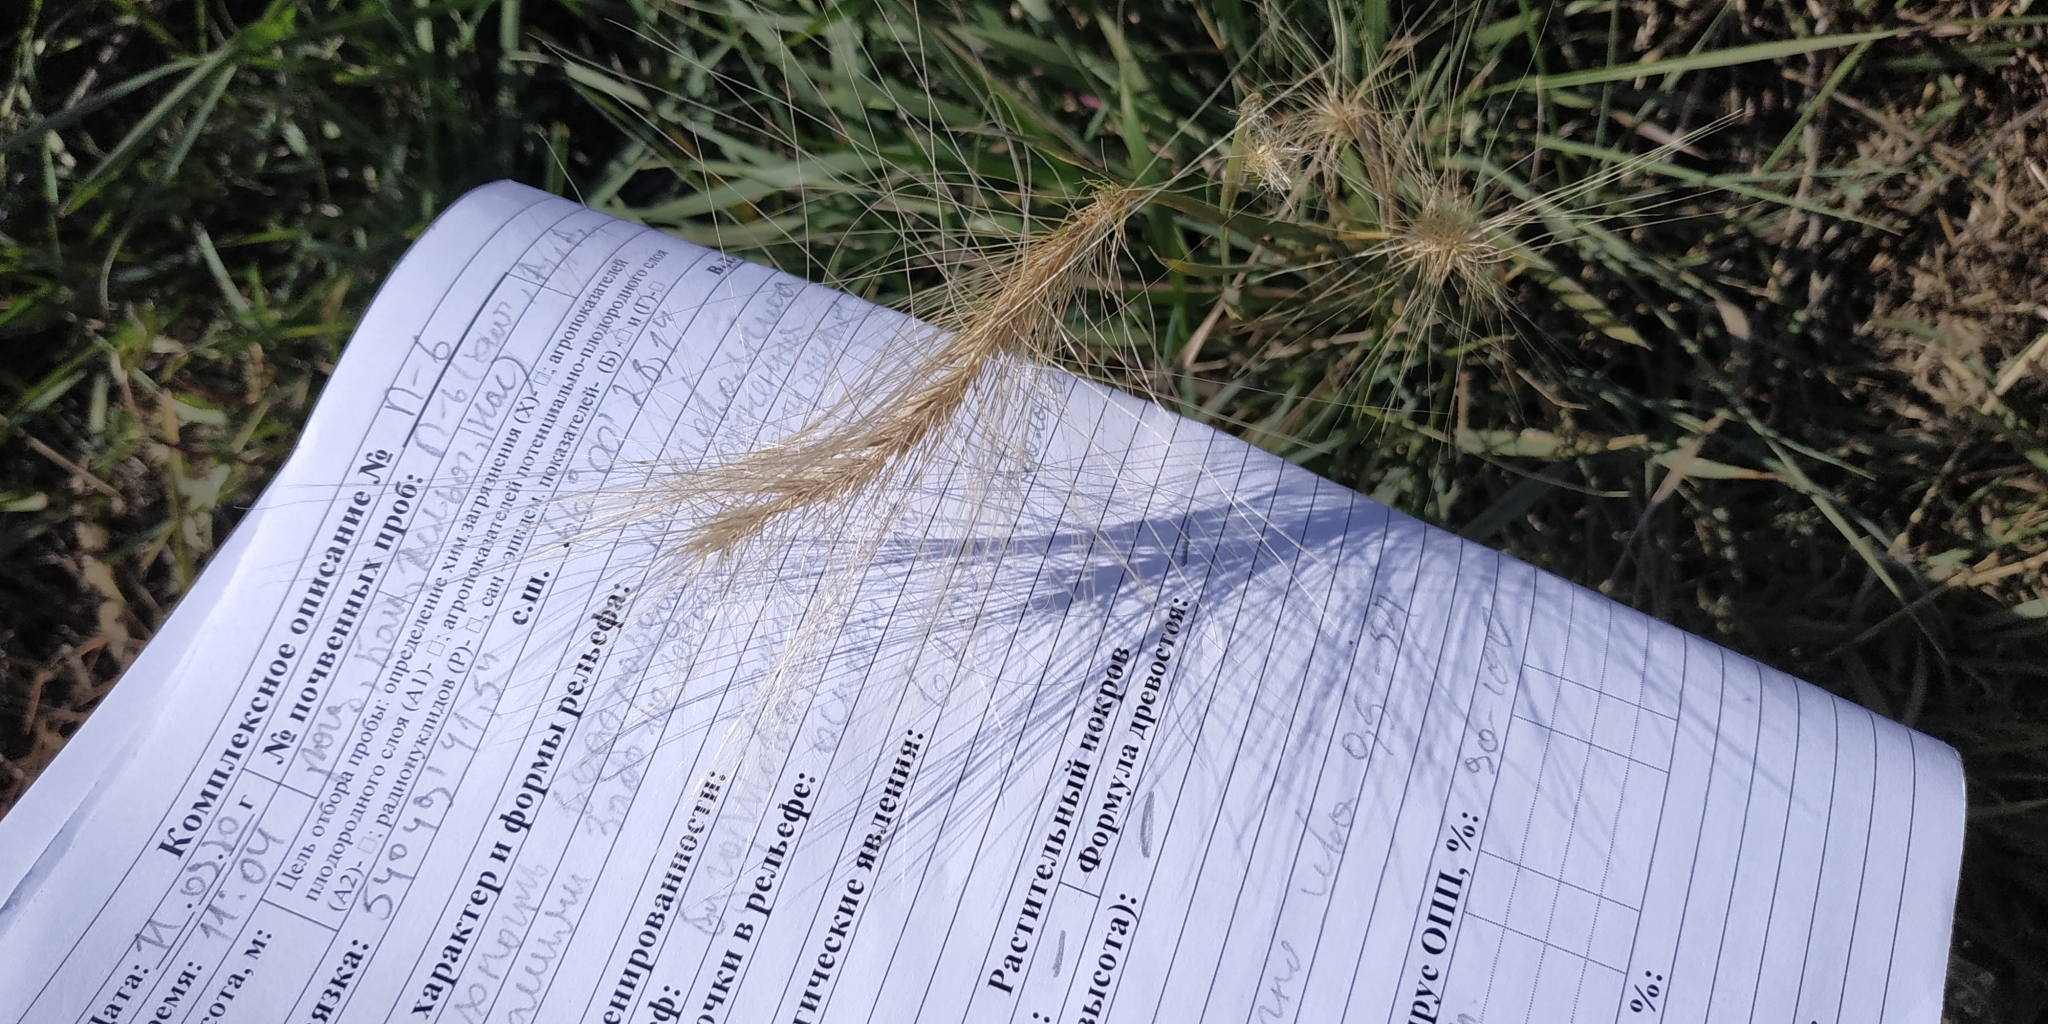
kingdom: Plantae
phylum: Tracheophyta
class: Liliopsida
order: Poales
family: Poaceae
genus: Hordeum
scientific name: Hordeum jubatum
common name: Foxtail barley
